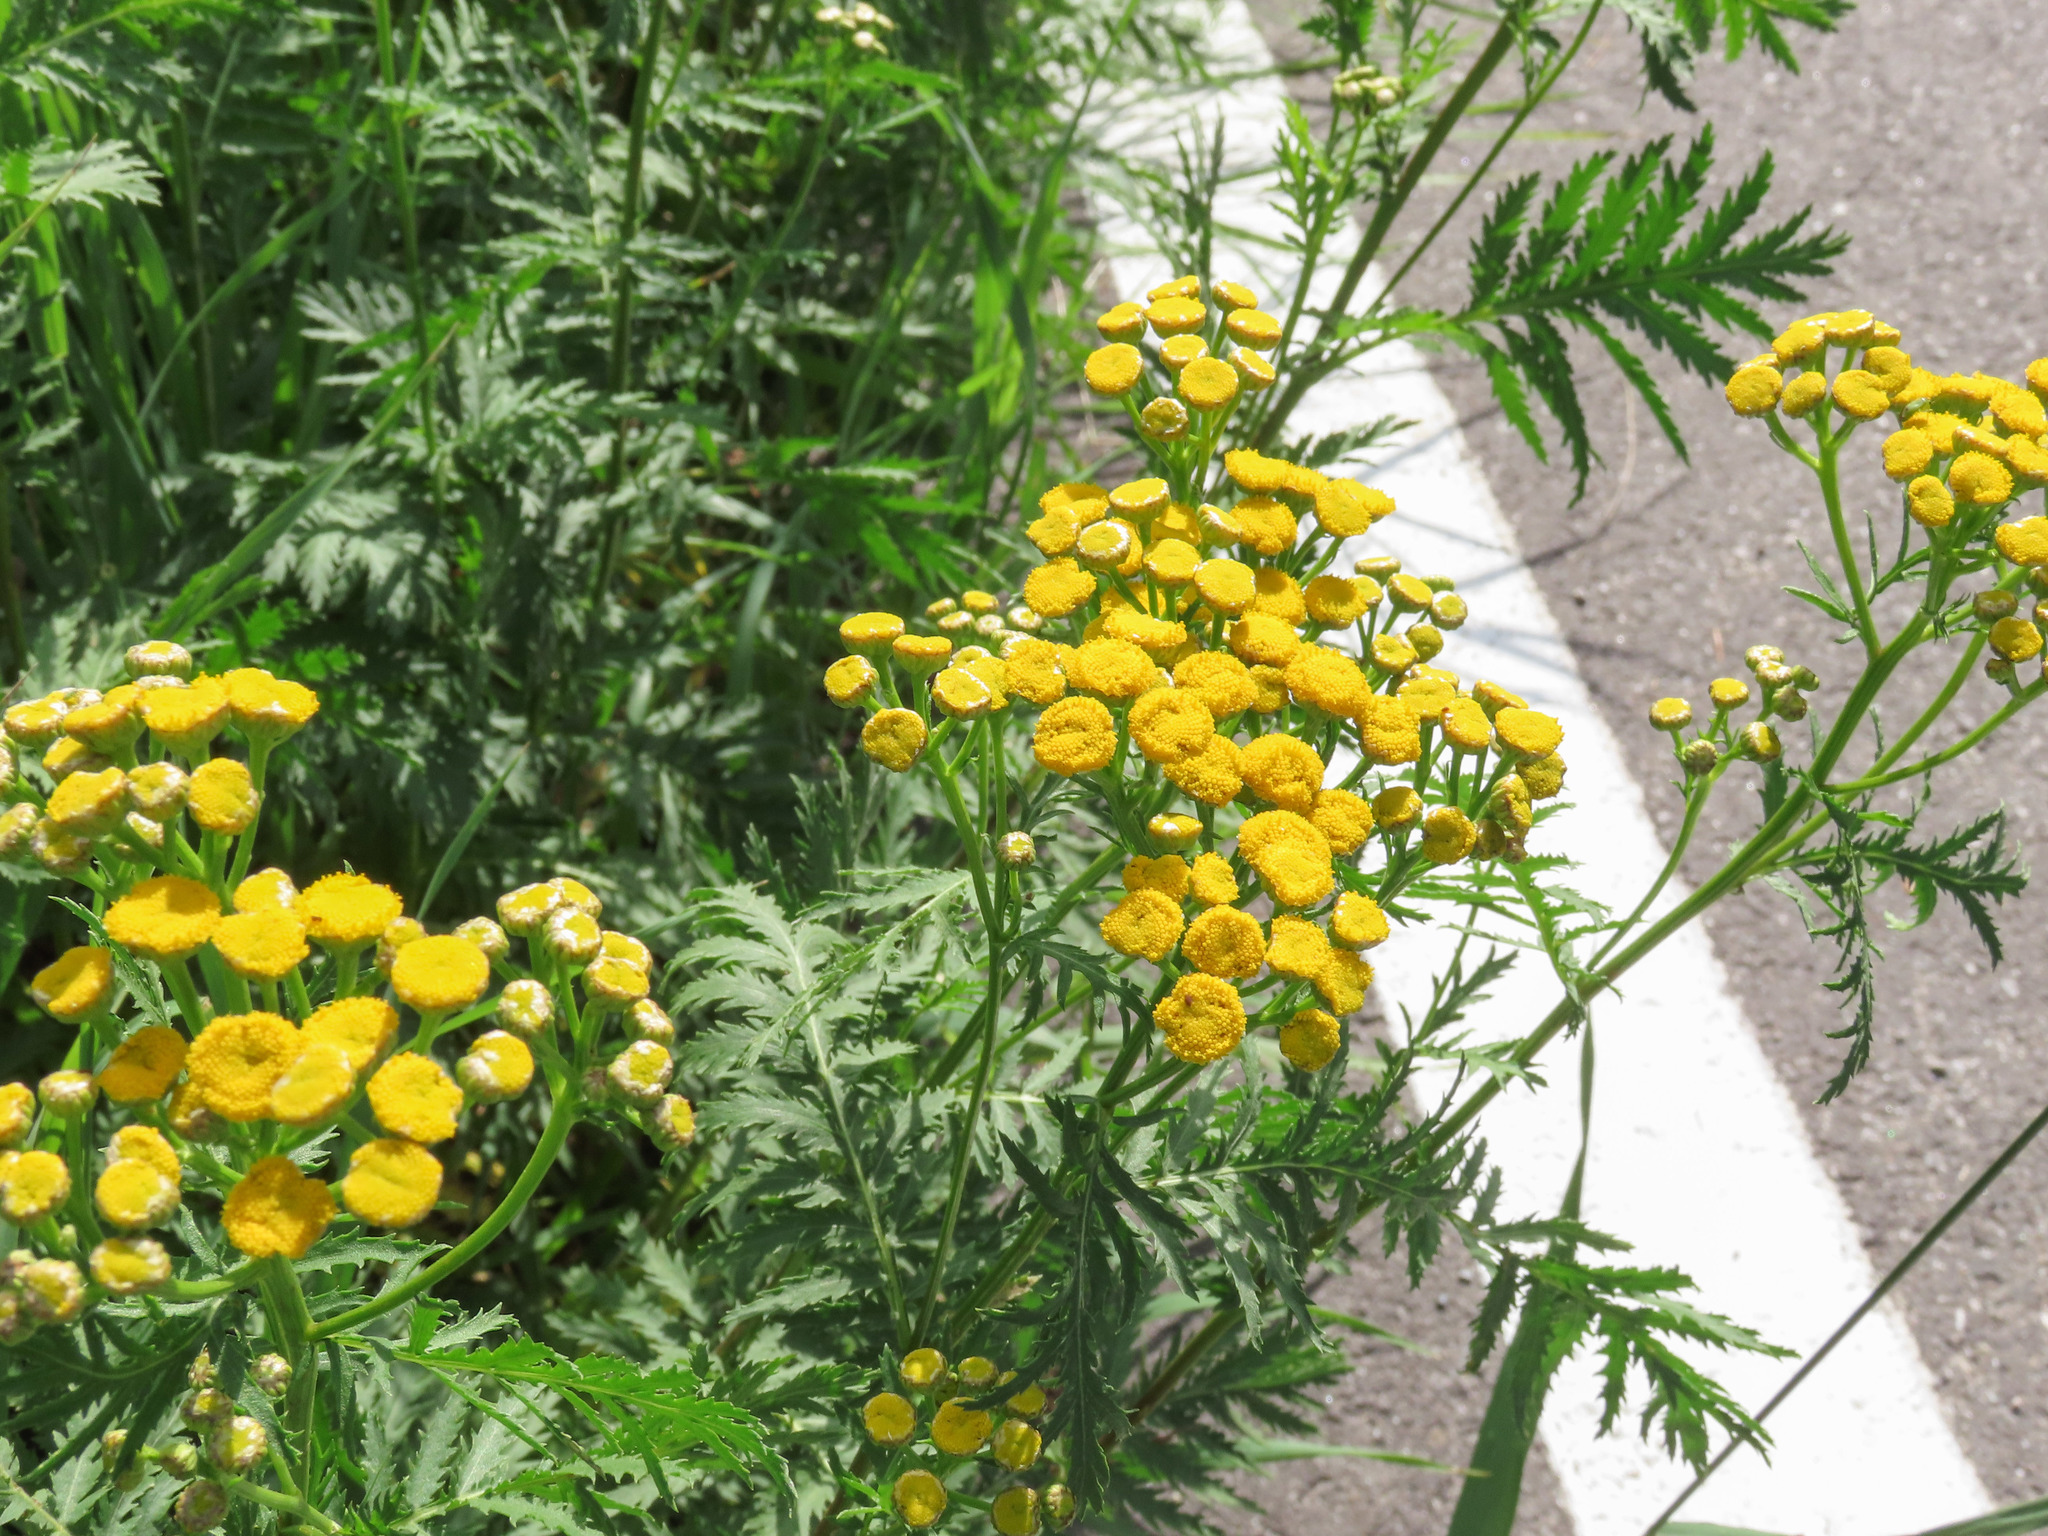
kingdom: Plantae
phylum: Tracheophyta
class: Magnoliopsida
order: Asterales
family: Asteraceae
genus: Tanacetum
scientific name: Tanacetum vulgare
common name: Common tansy
